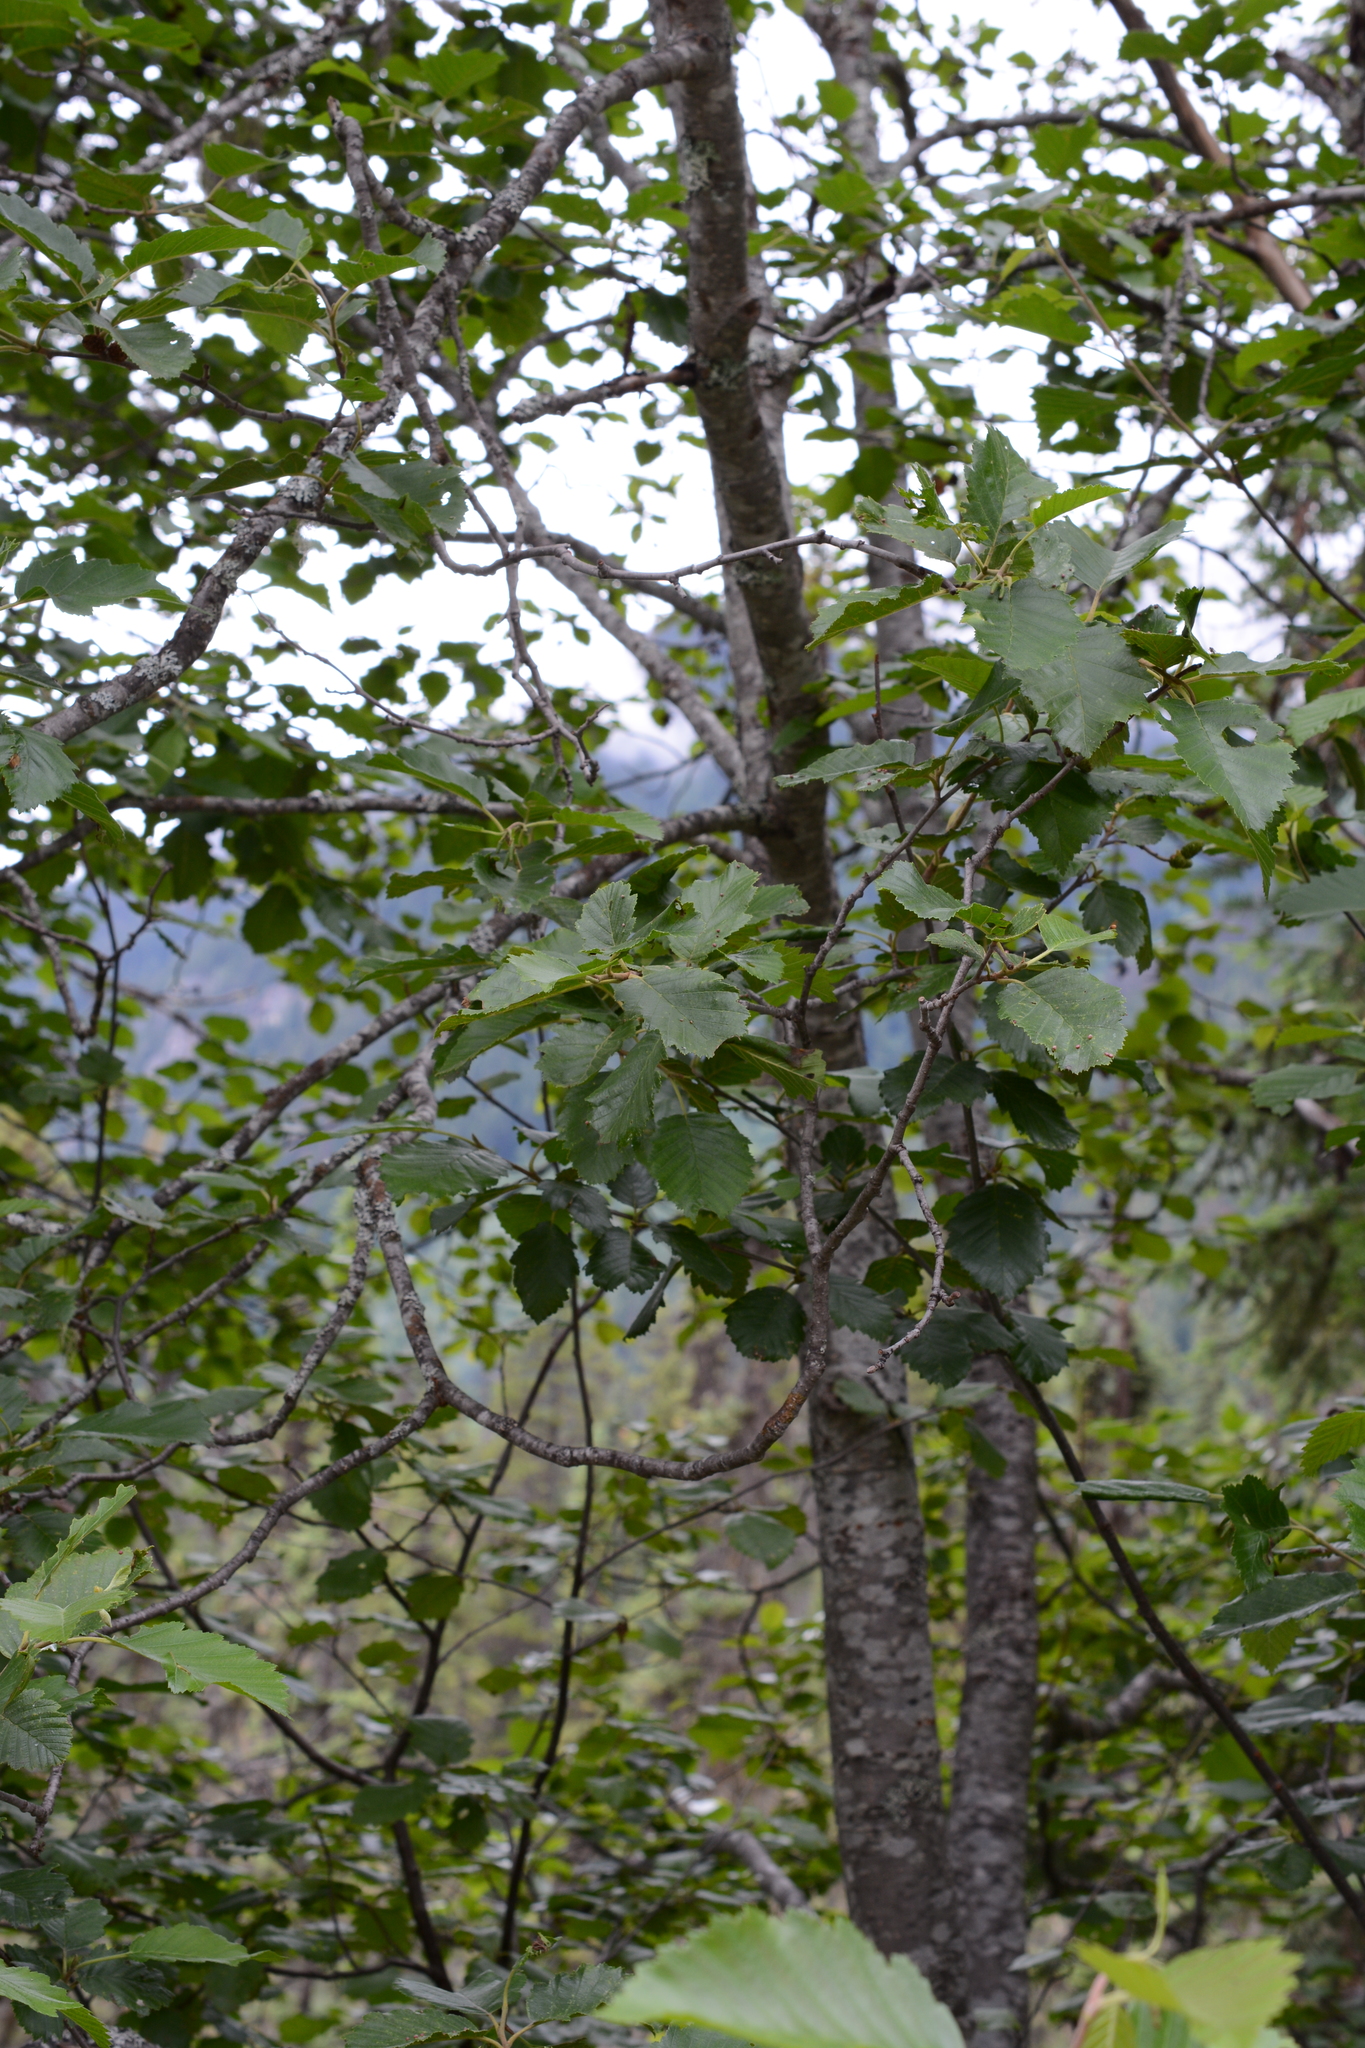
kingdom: Plantae
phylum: Tracheophyta
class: Magnoliopsida
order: Fagales
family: Betulaceae
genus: Alnus
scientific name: Alnus incana
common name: Grey alder
